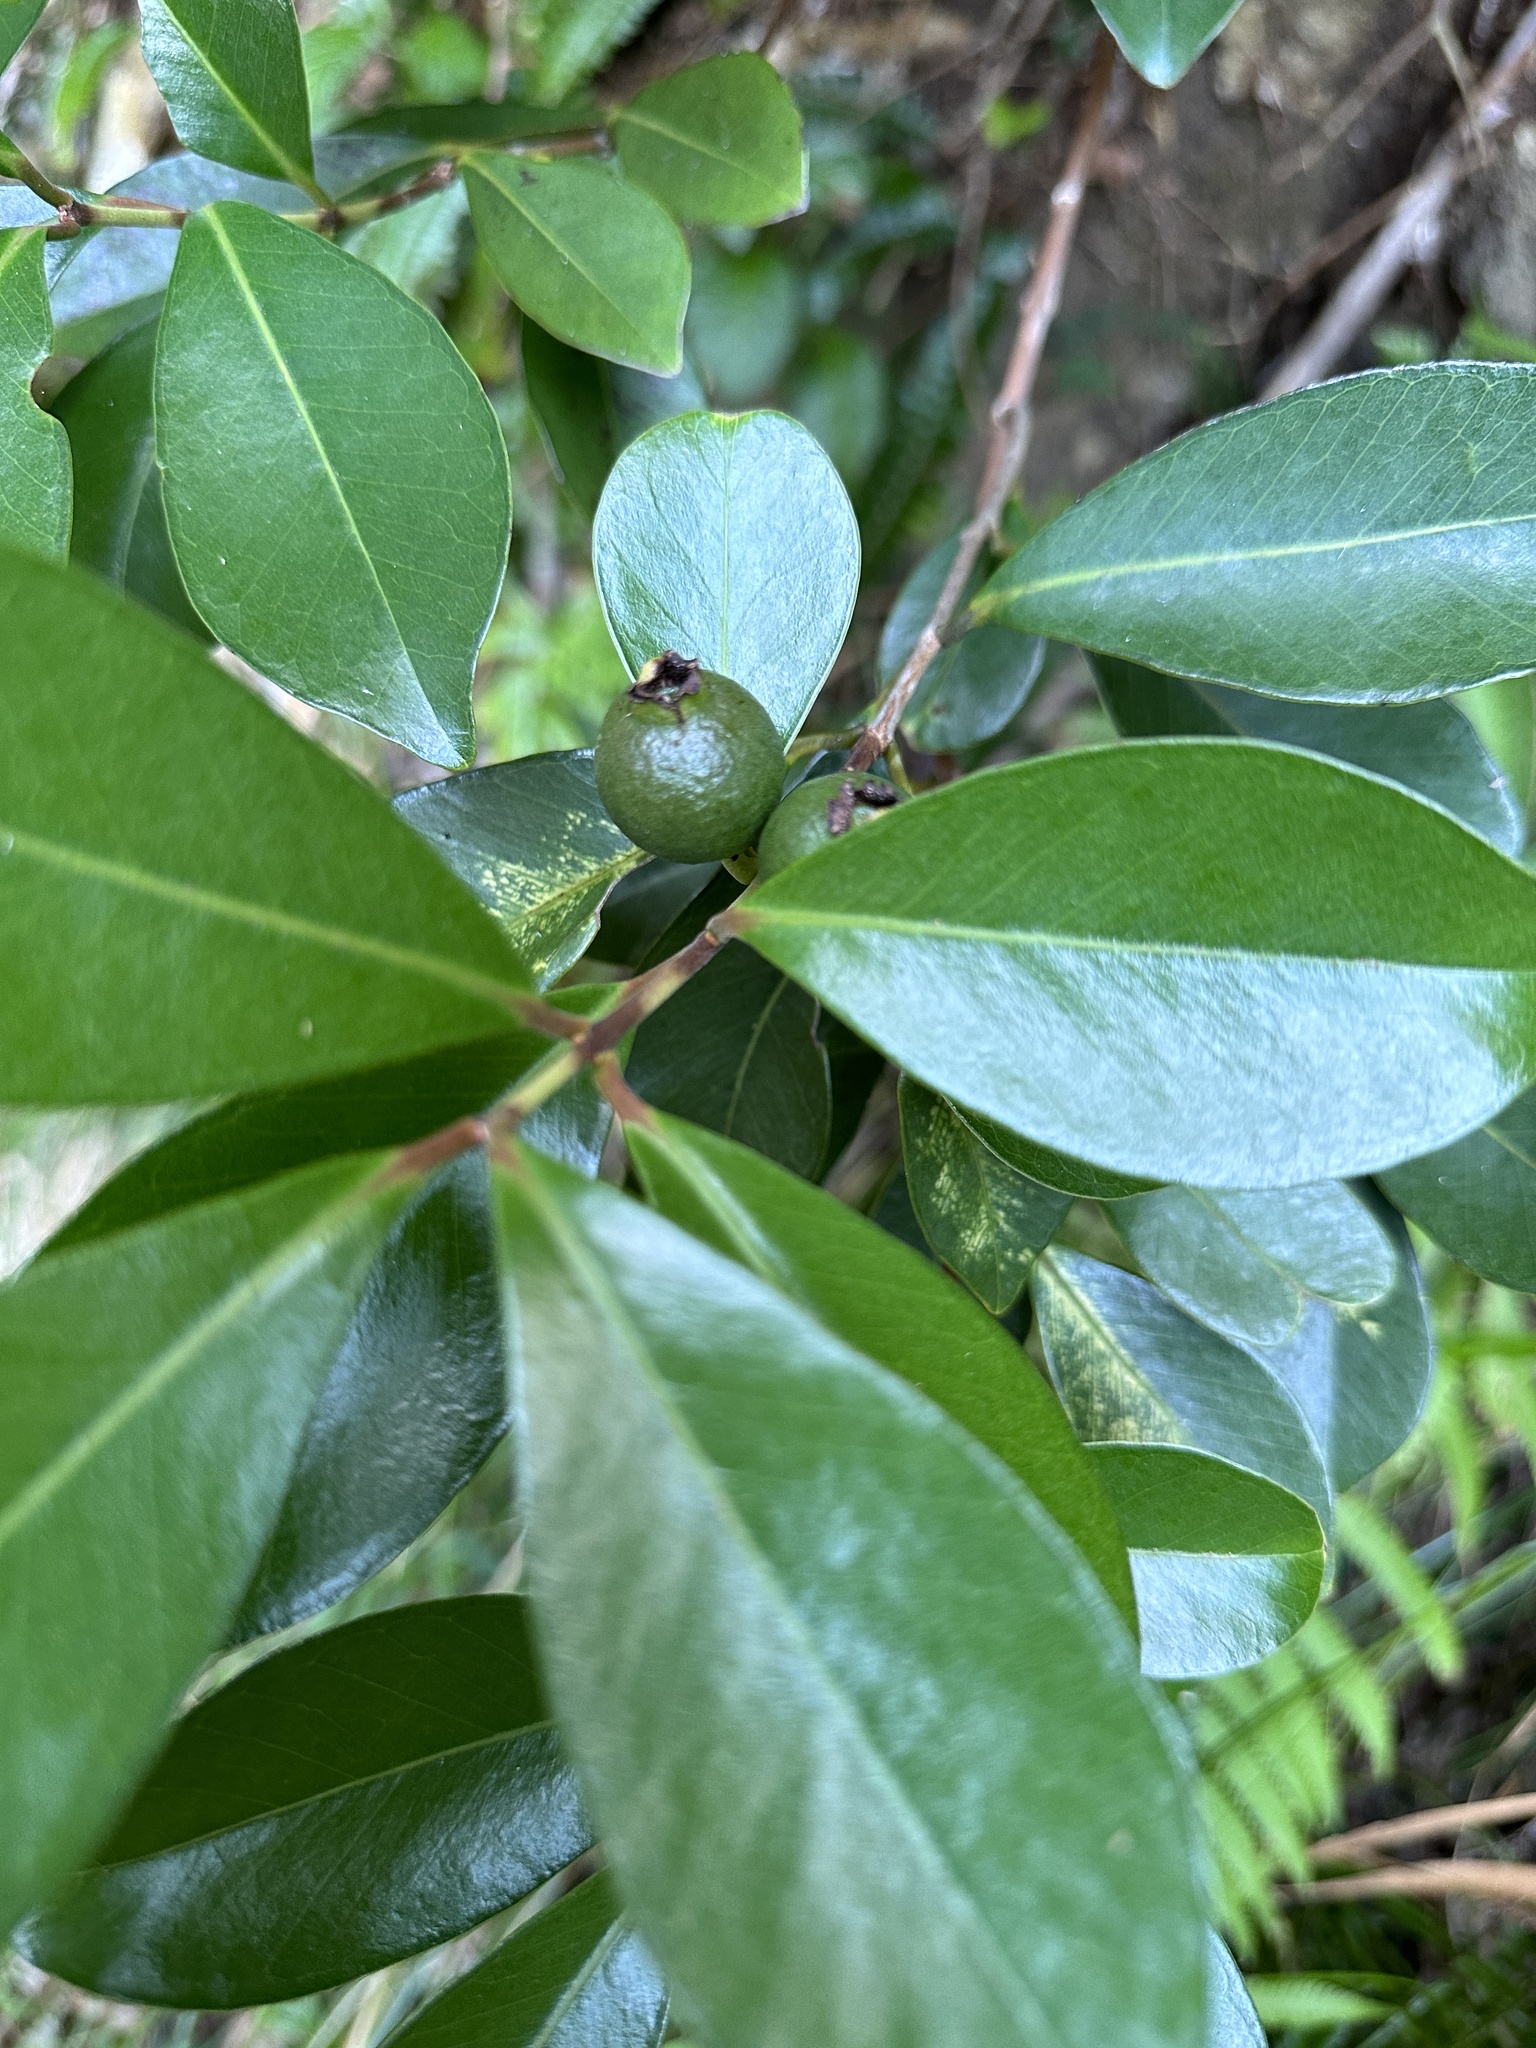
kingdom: Plantae
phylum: Tracheophyta
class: Magnoliopsida
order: Myrtales
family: Myrtaceae
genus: Psidium
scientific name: Psidium cattleianum
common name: Strawberry guava
